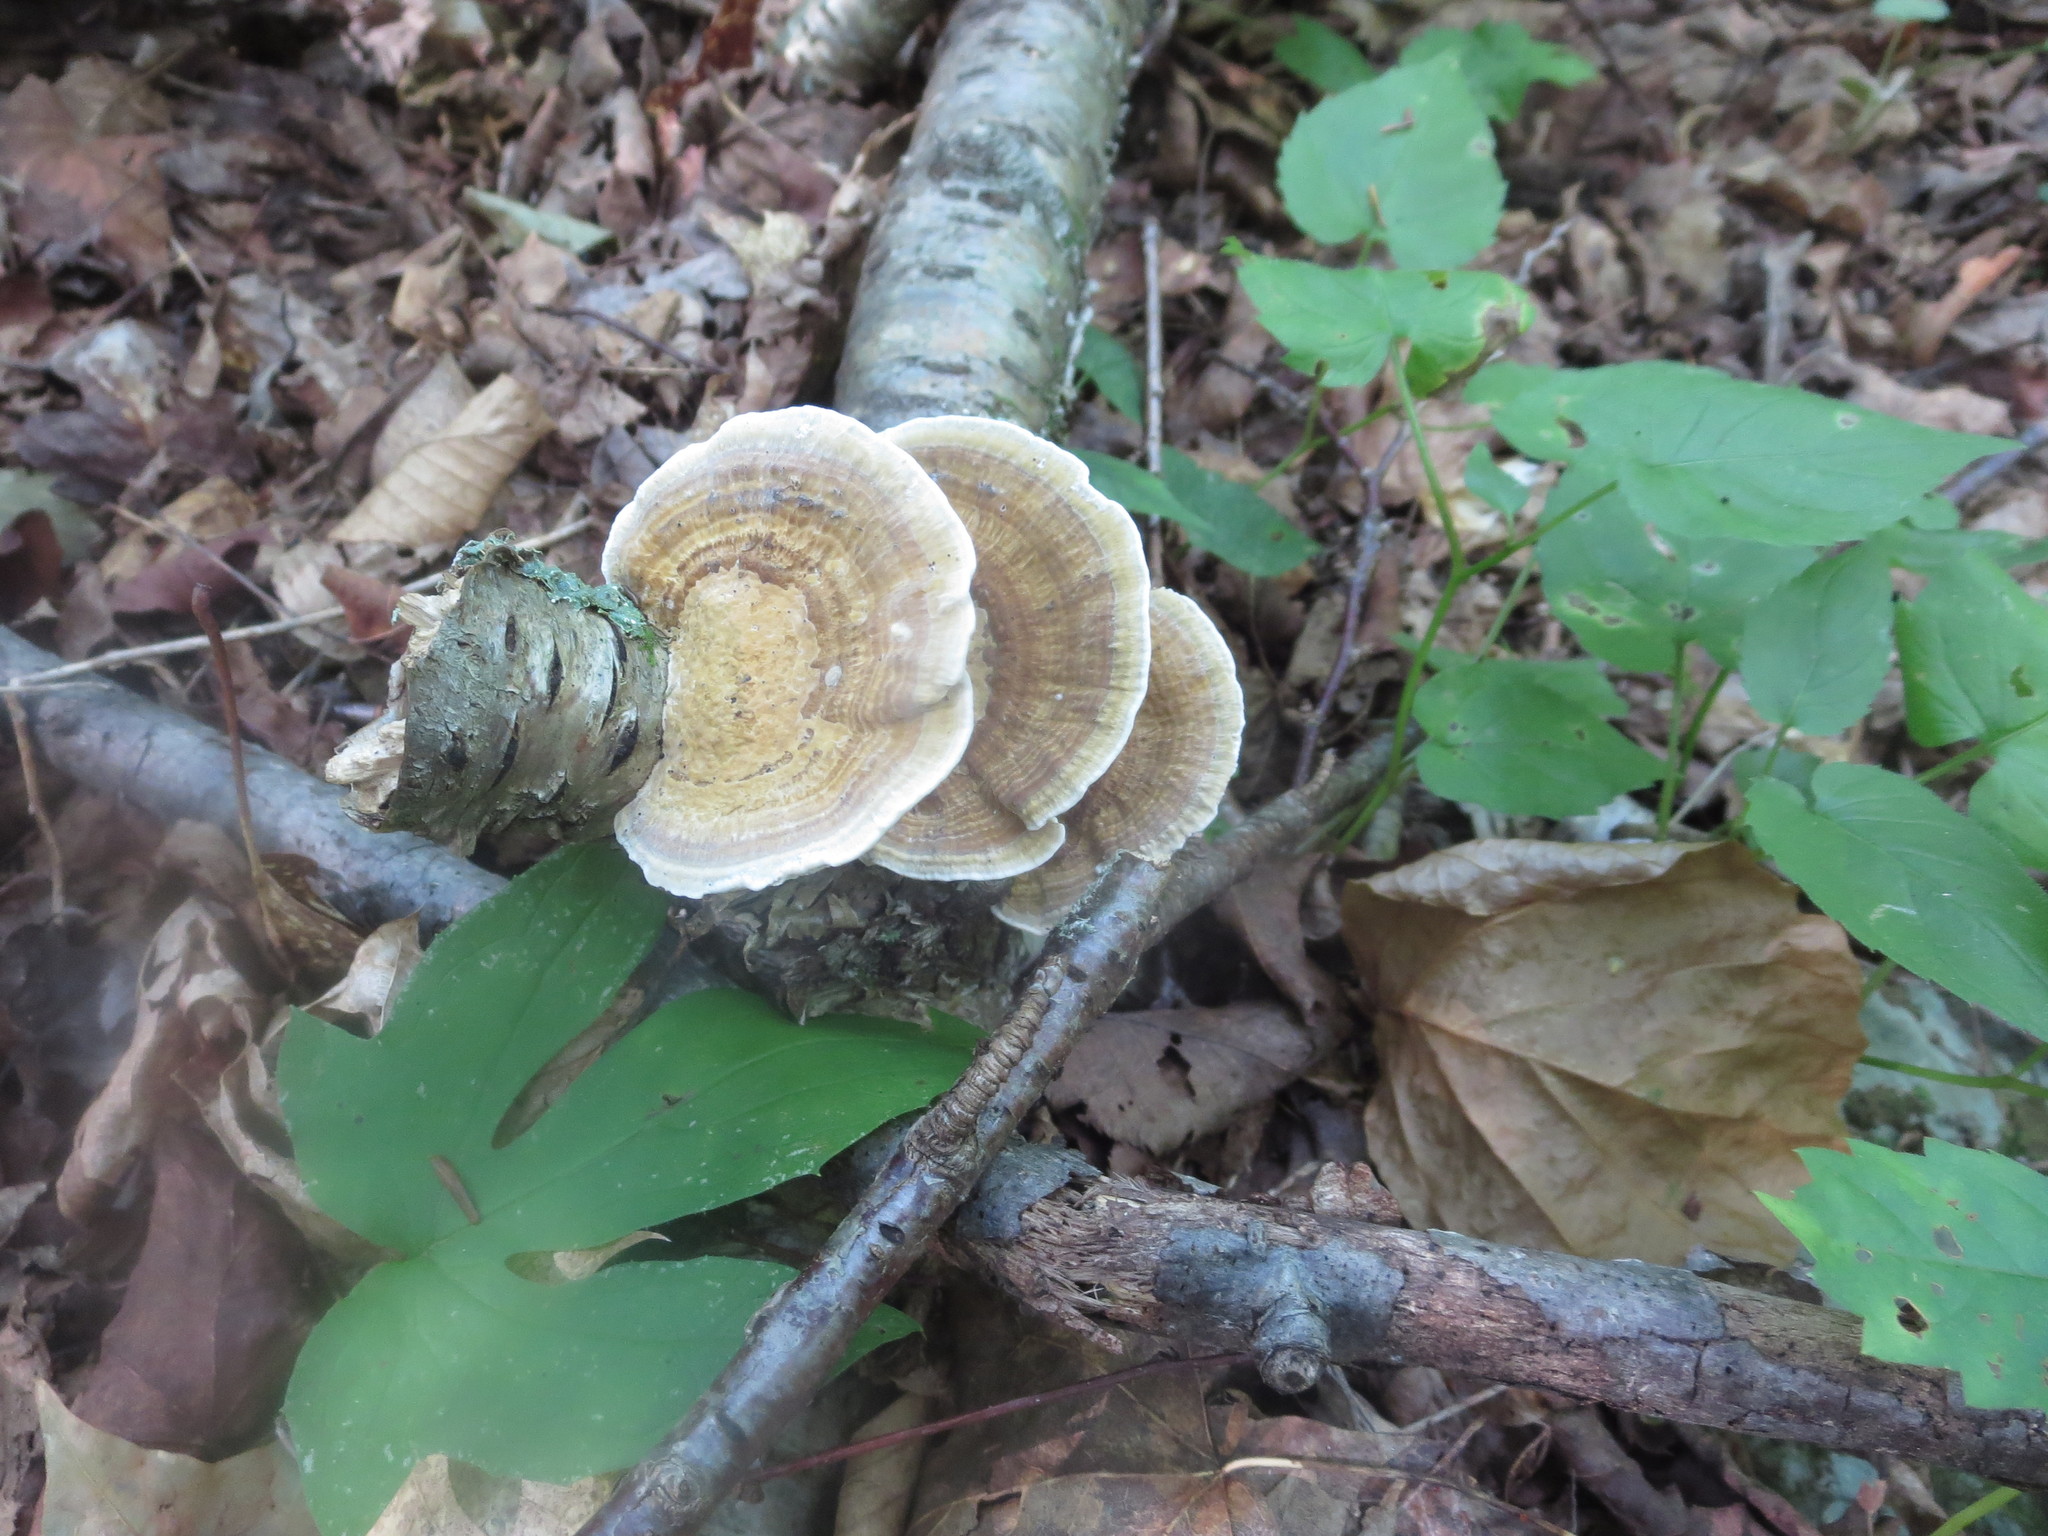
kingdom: Fungi
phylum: Basidiomycota
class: Agaricomycetes
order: Polyporales
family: Polyporaceae
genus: Daedaleopsis
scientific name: Daedaleopsis confragosa
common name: Blushing bracket
